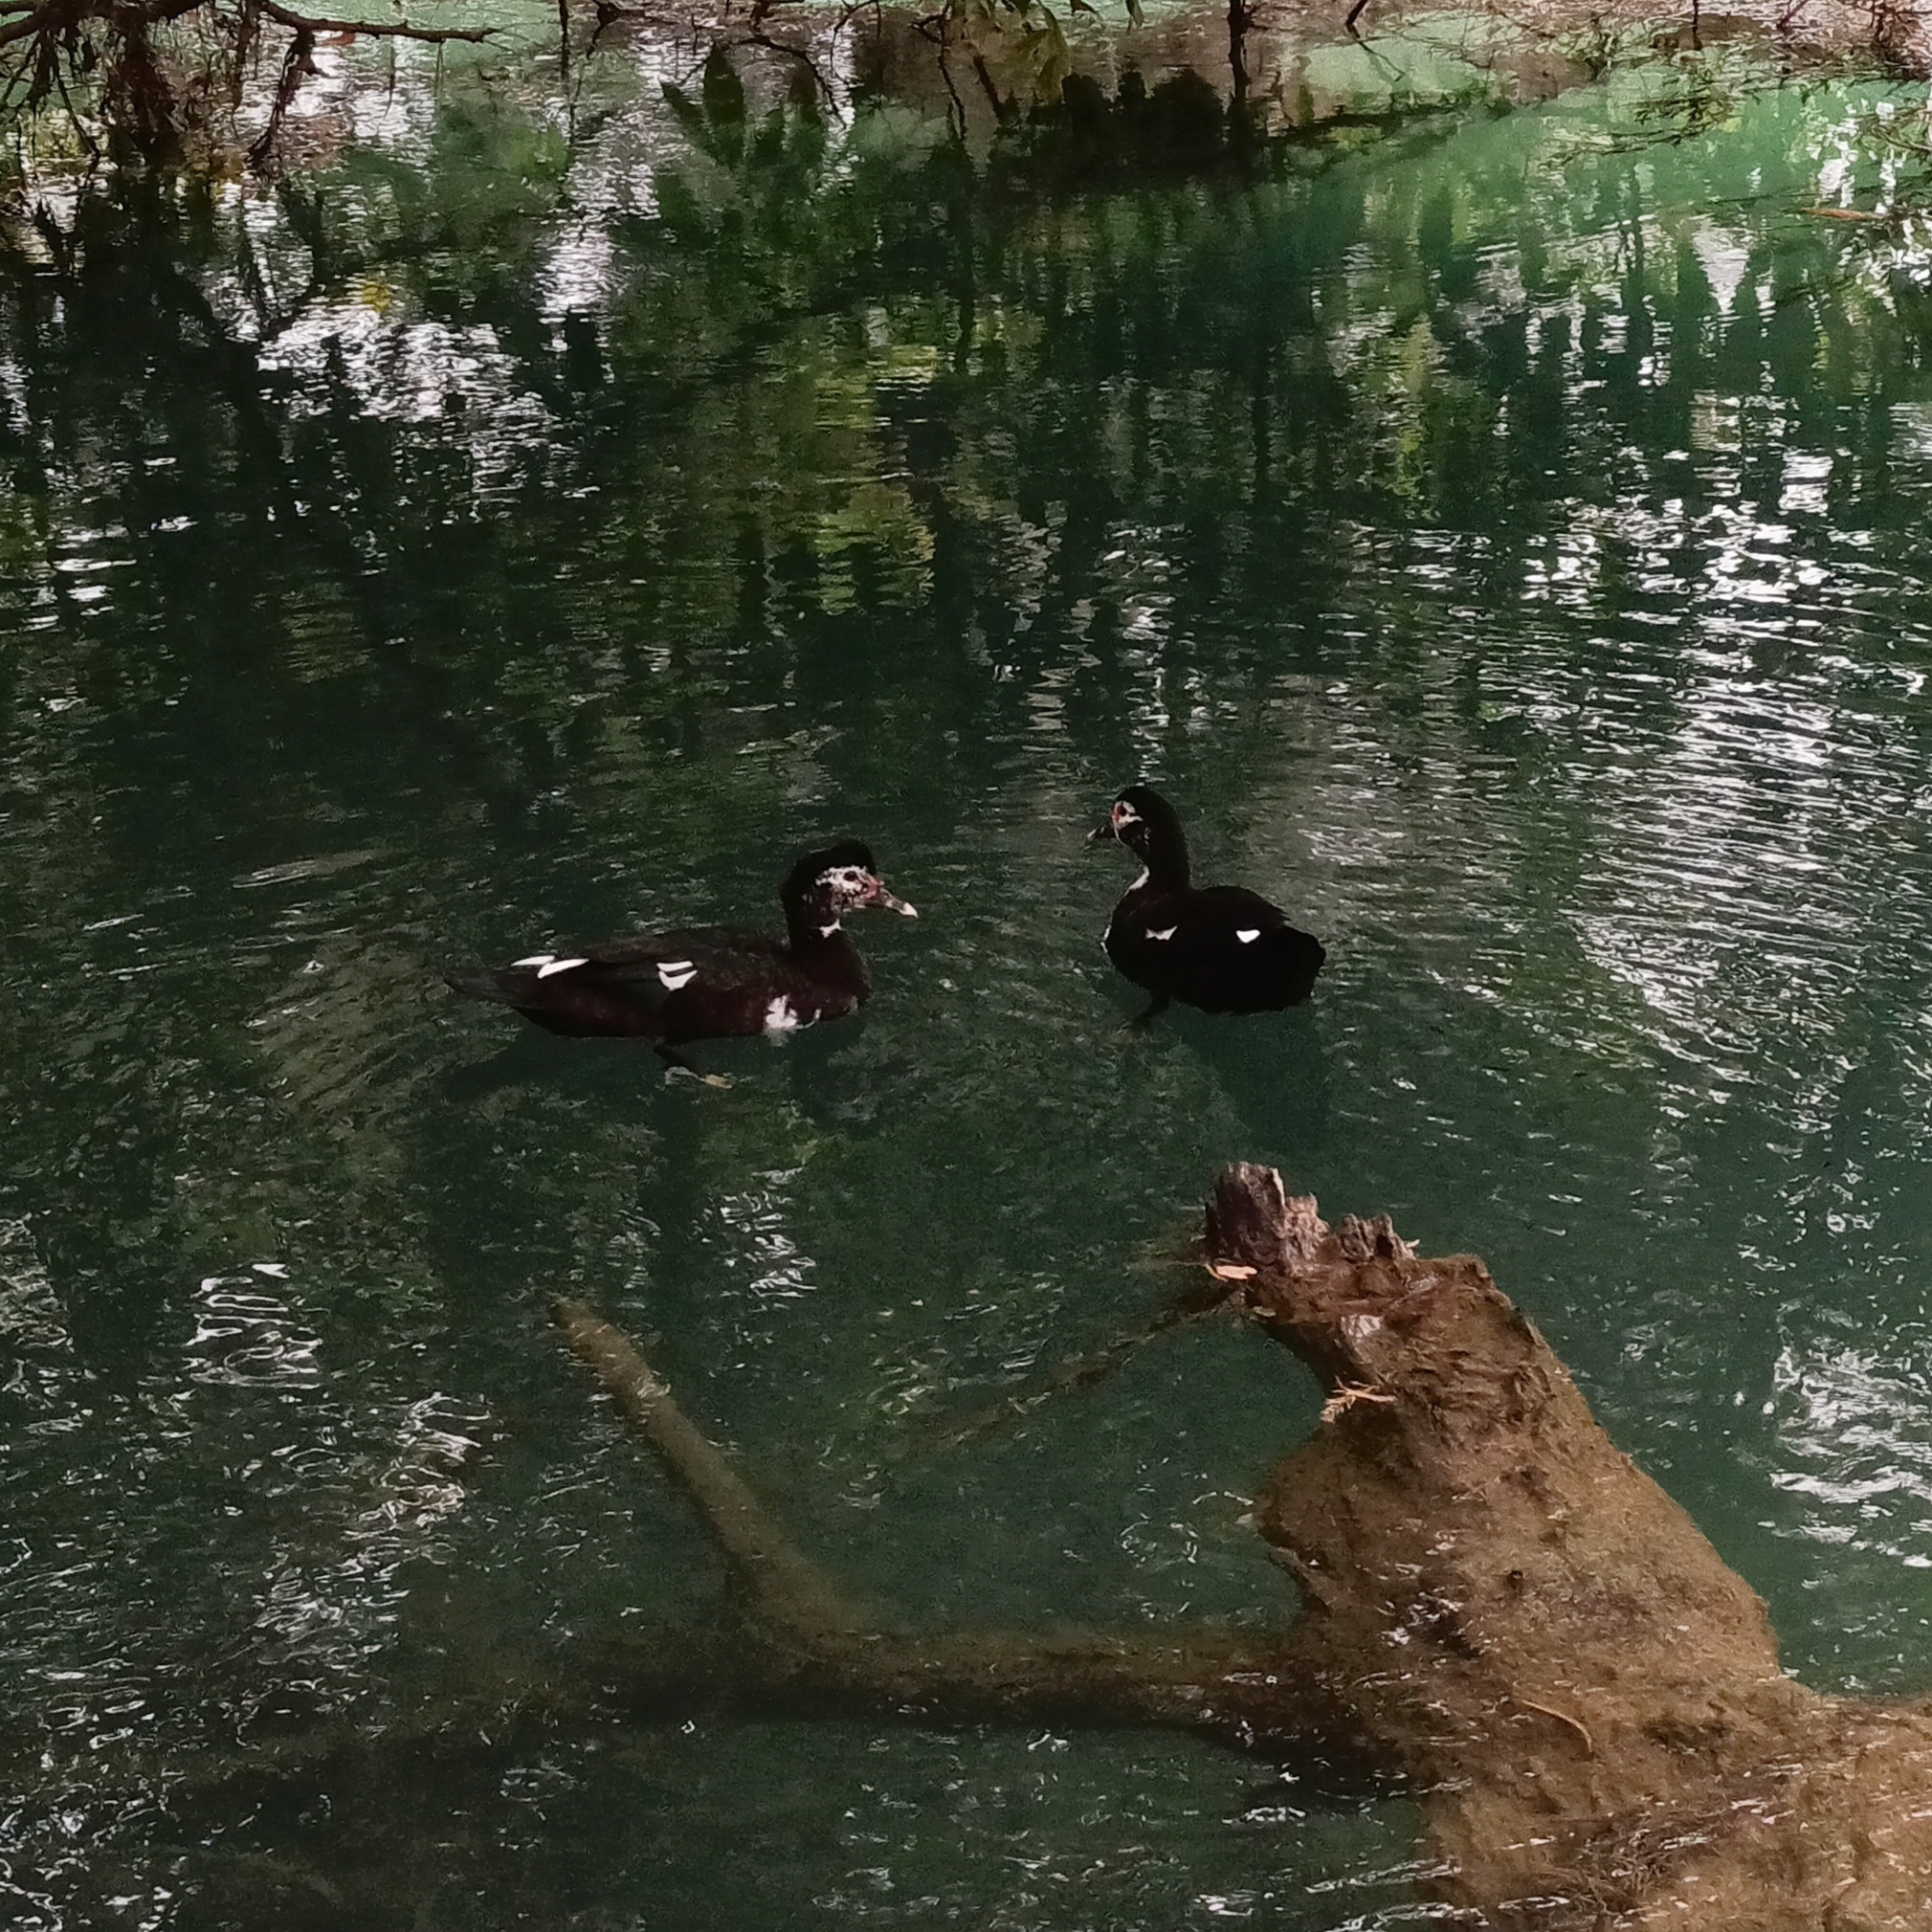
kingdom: Animalia
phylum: Chordata
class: Aves
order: Anseriformes
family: Anatidae
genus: Cairina
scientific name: Cairina moschata
